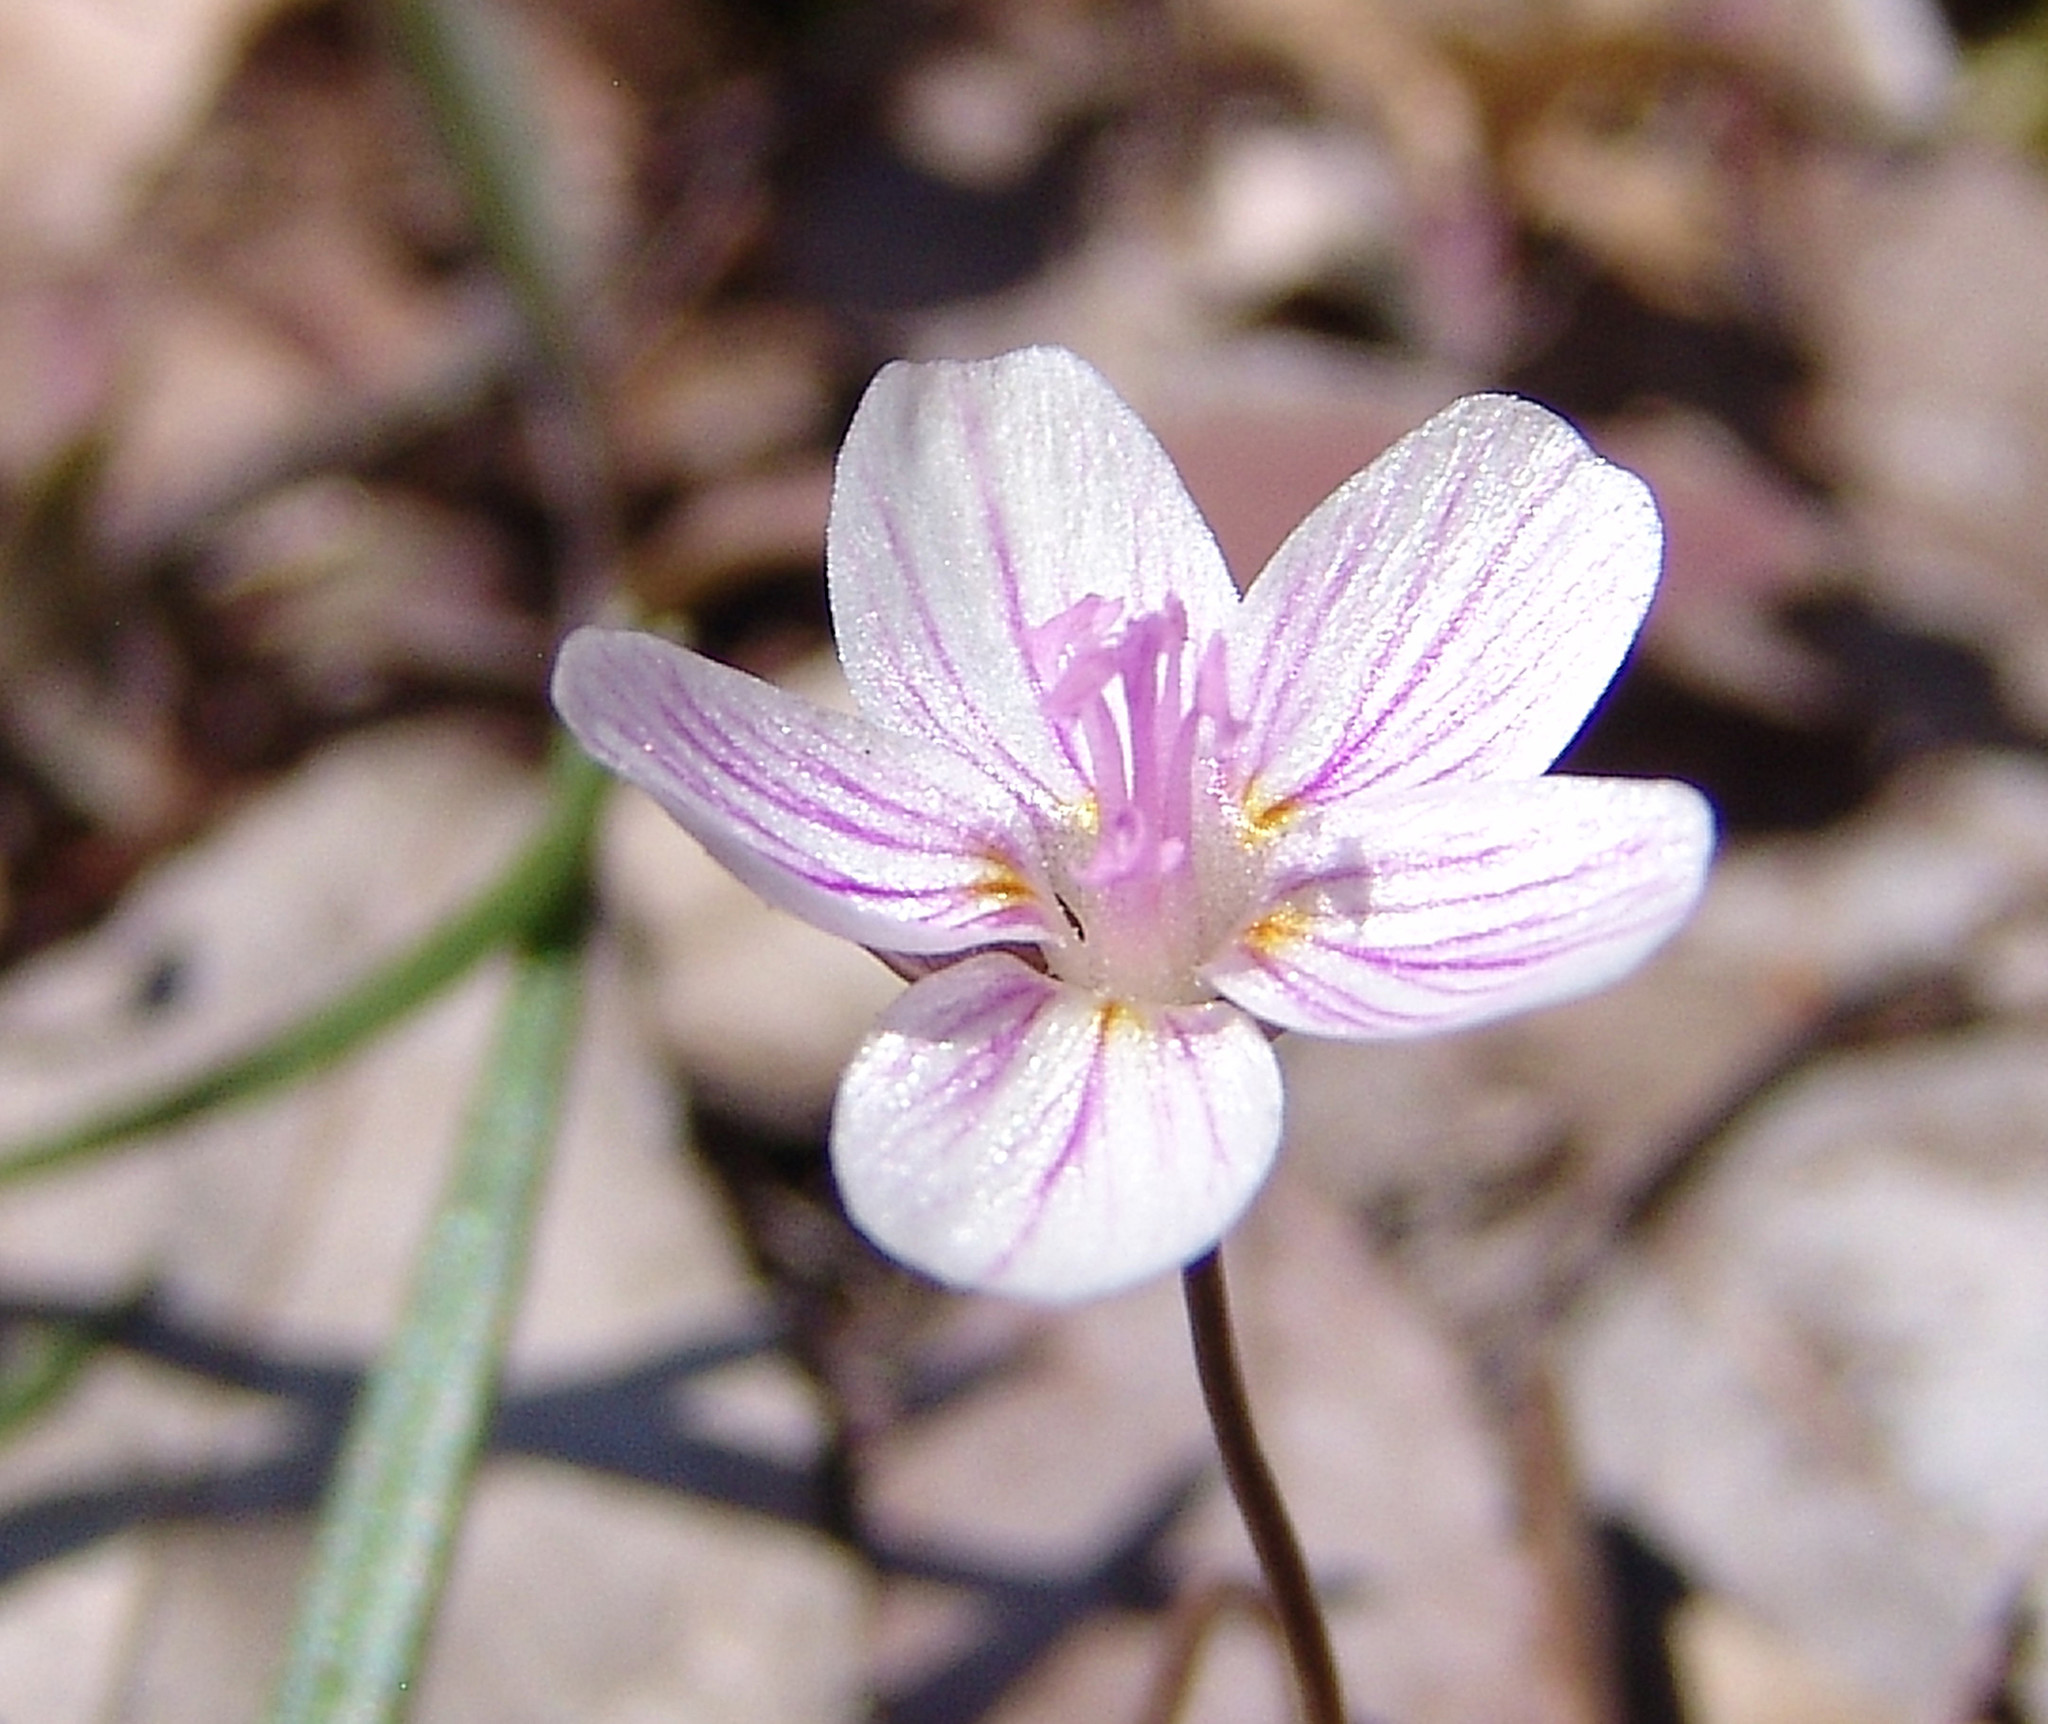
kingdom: Plantae
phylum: Tracheophyta
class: Magnoliopsida
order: Caryophyllales
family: Montiaceae
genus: Claytonia
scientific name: Claytonia virginica
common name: Virginia springbeauty
